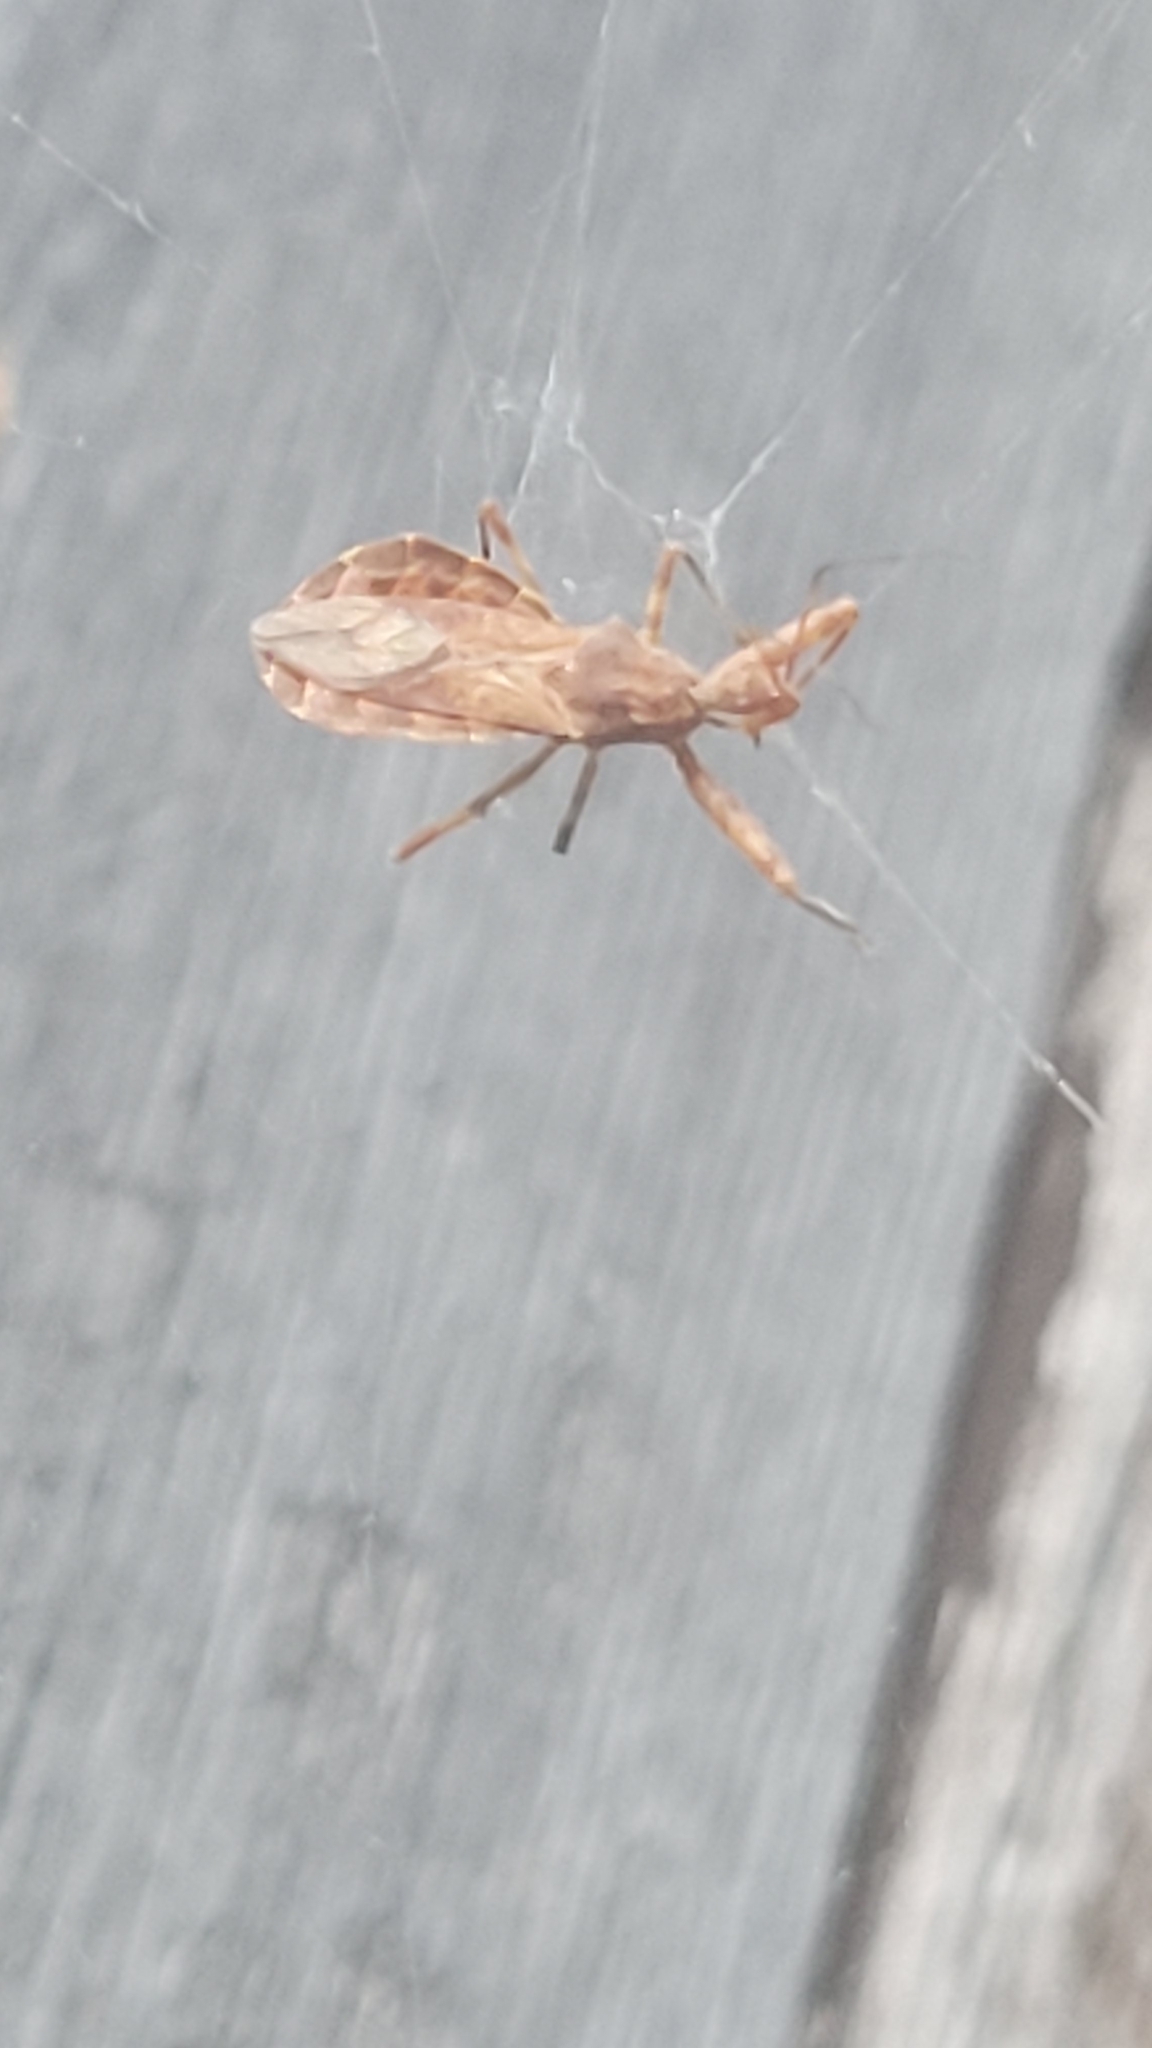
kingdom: Animalia
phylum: Arthropoda
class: Insecta
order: Hemiptera
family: Reduviidae
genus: Acholla
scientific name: Acholla multispinosa
